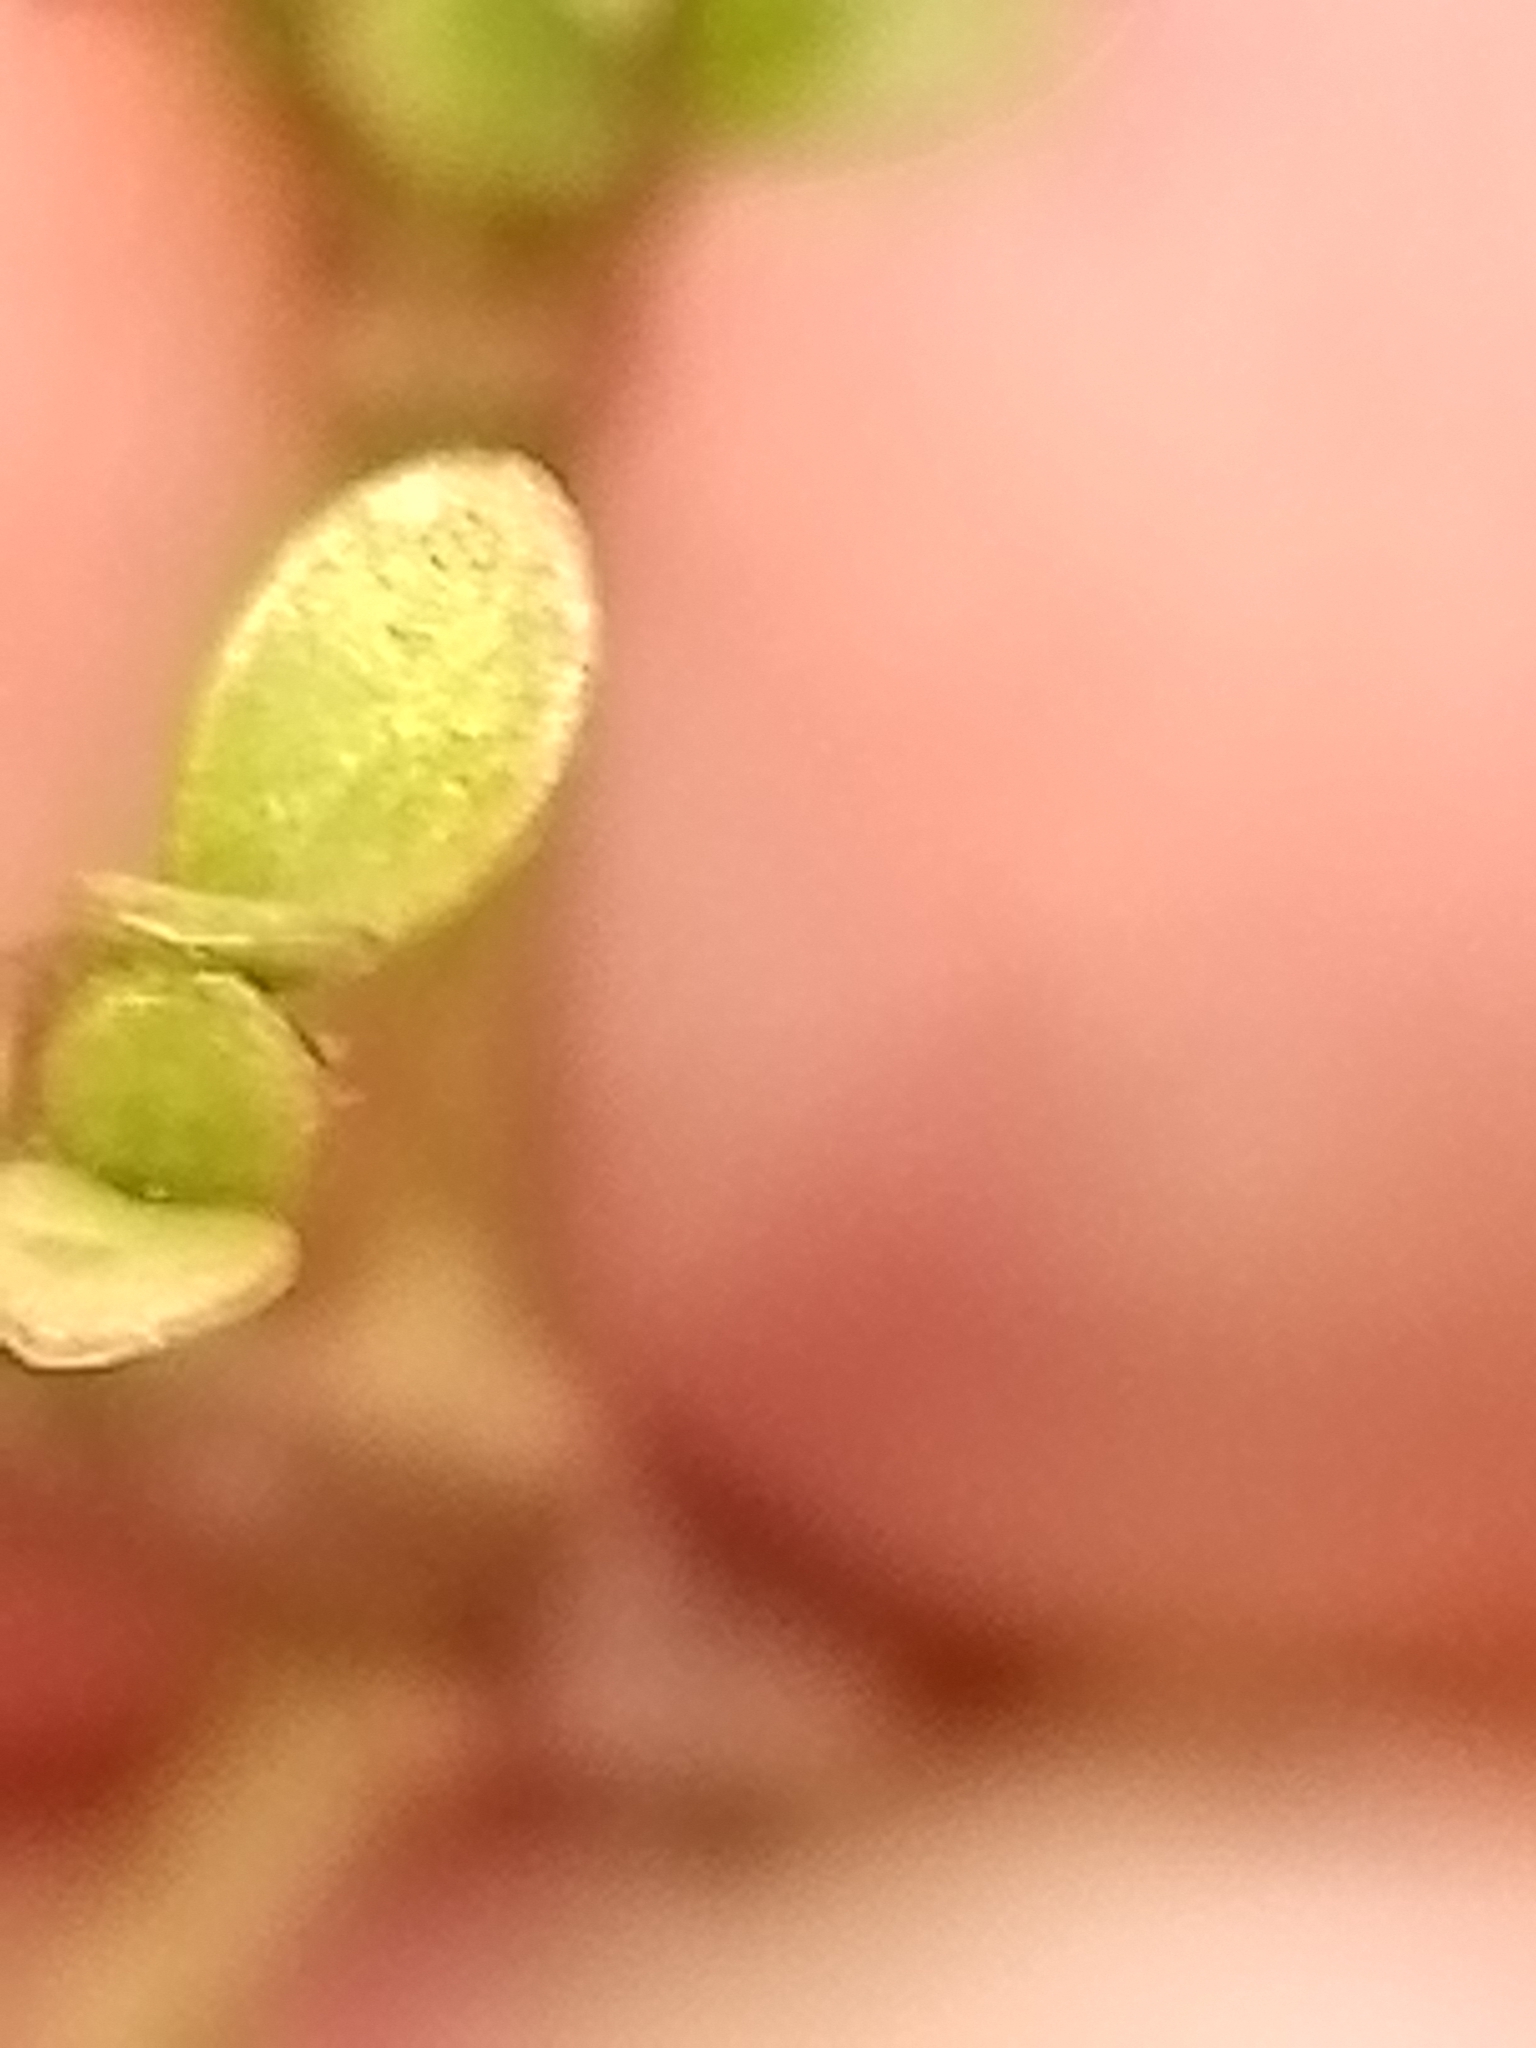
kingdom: Plantae
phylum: Tracheophyta
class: Magnoliopsida
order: Gentianales
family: Rubiaceae
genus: Coprosma
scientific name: Coprosma dumosa
